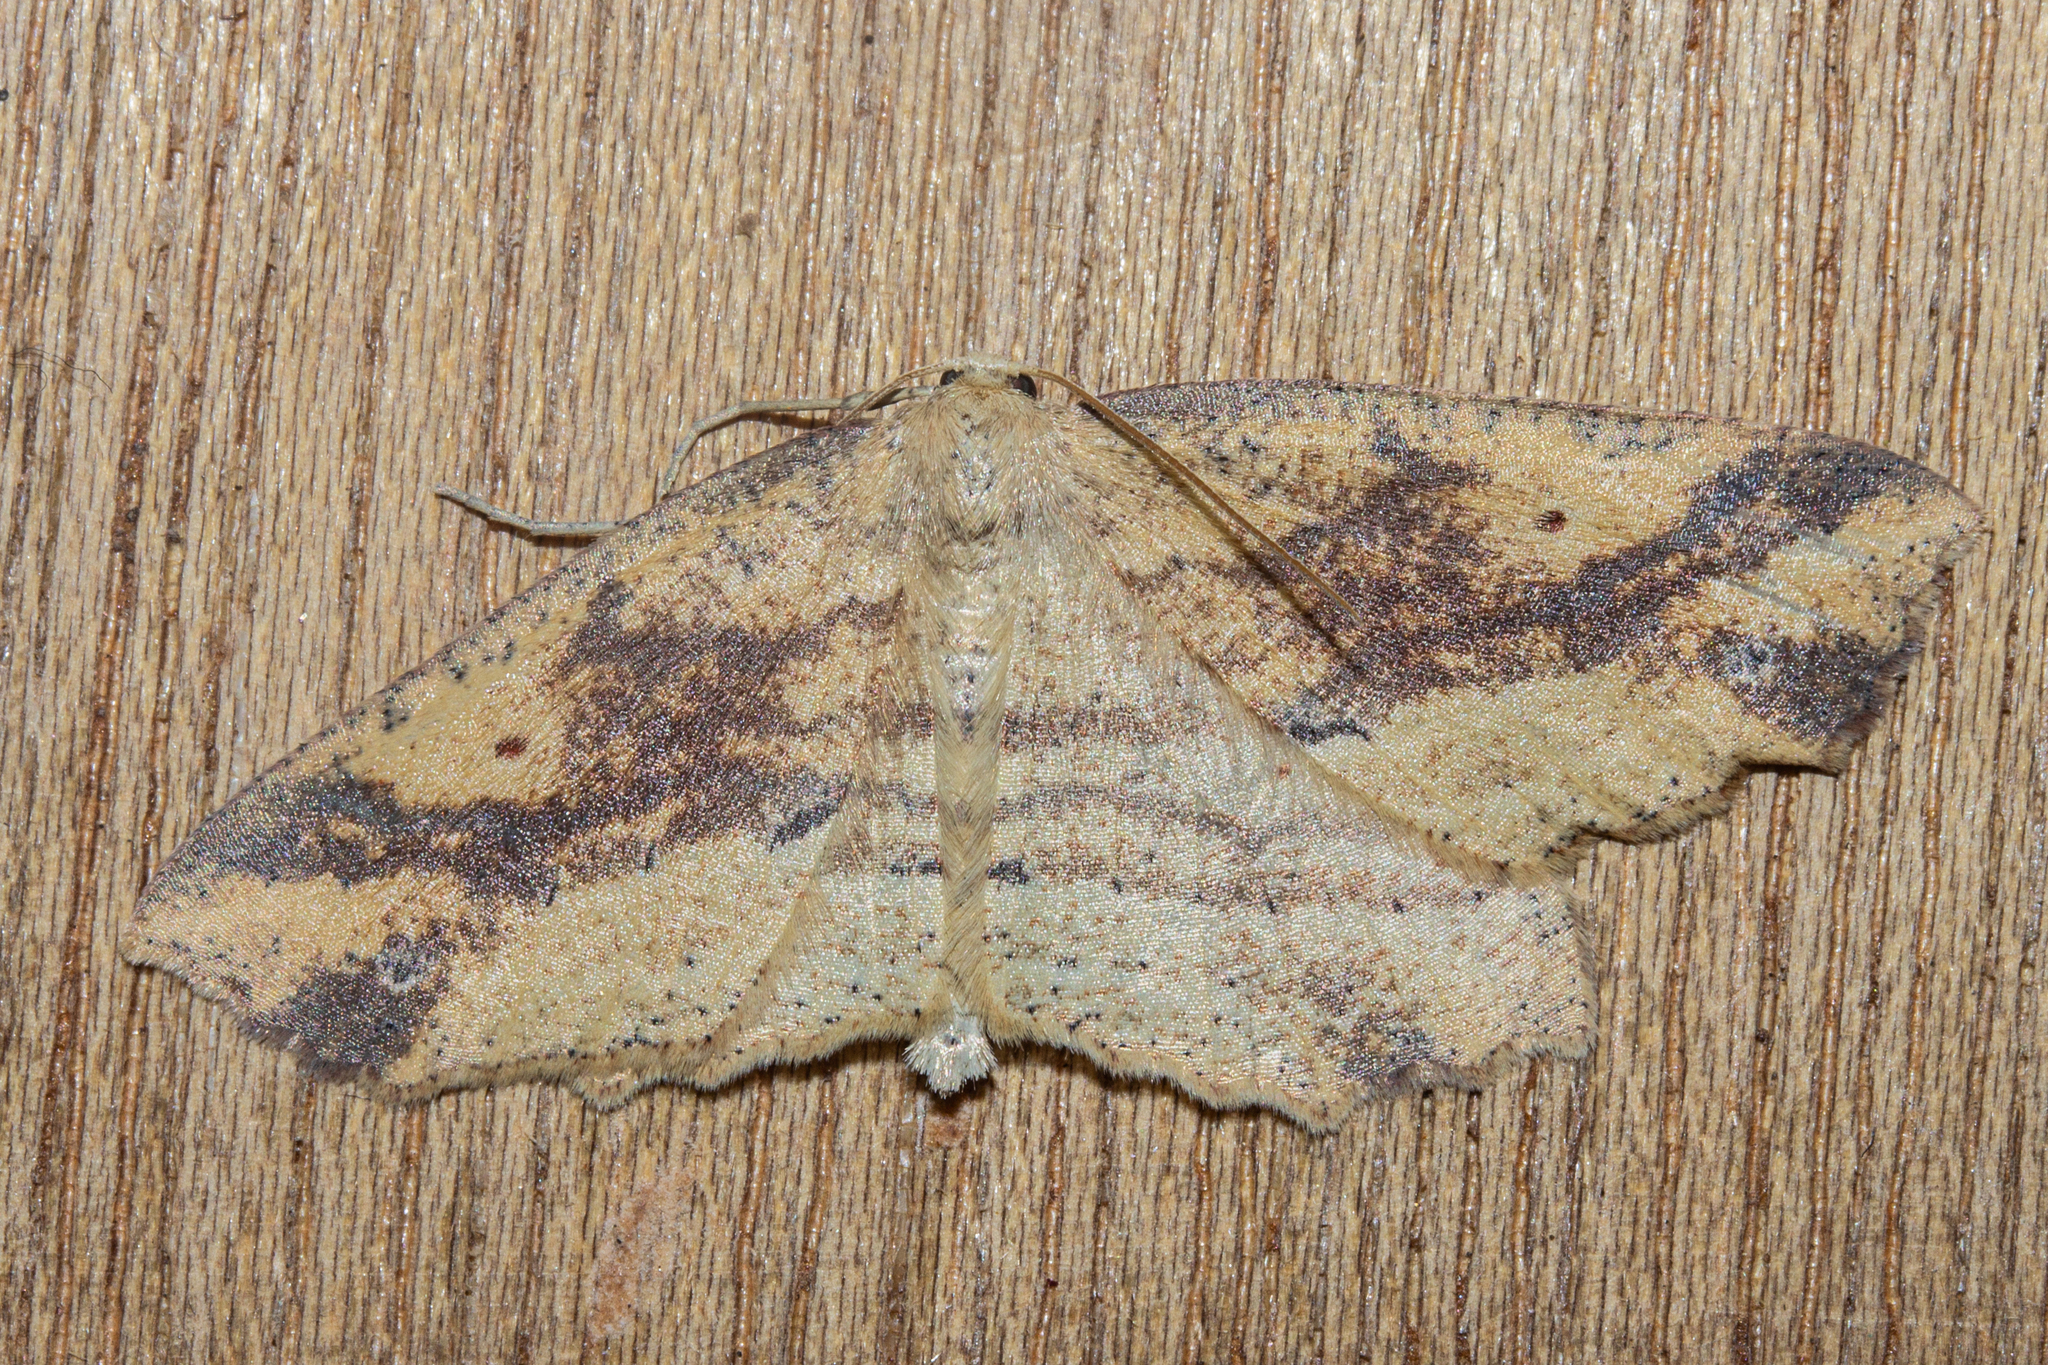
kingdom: Animalia
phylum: Arthropoda
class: Insecta
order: Lepidoptera
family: Geometridae
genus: Xyridacma
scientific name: Xyridacma ustaria
